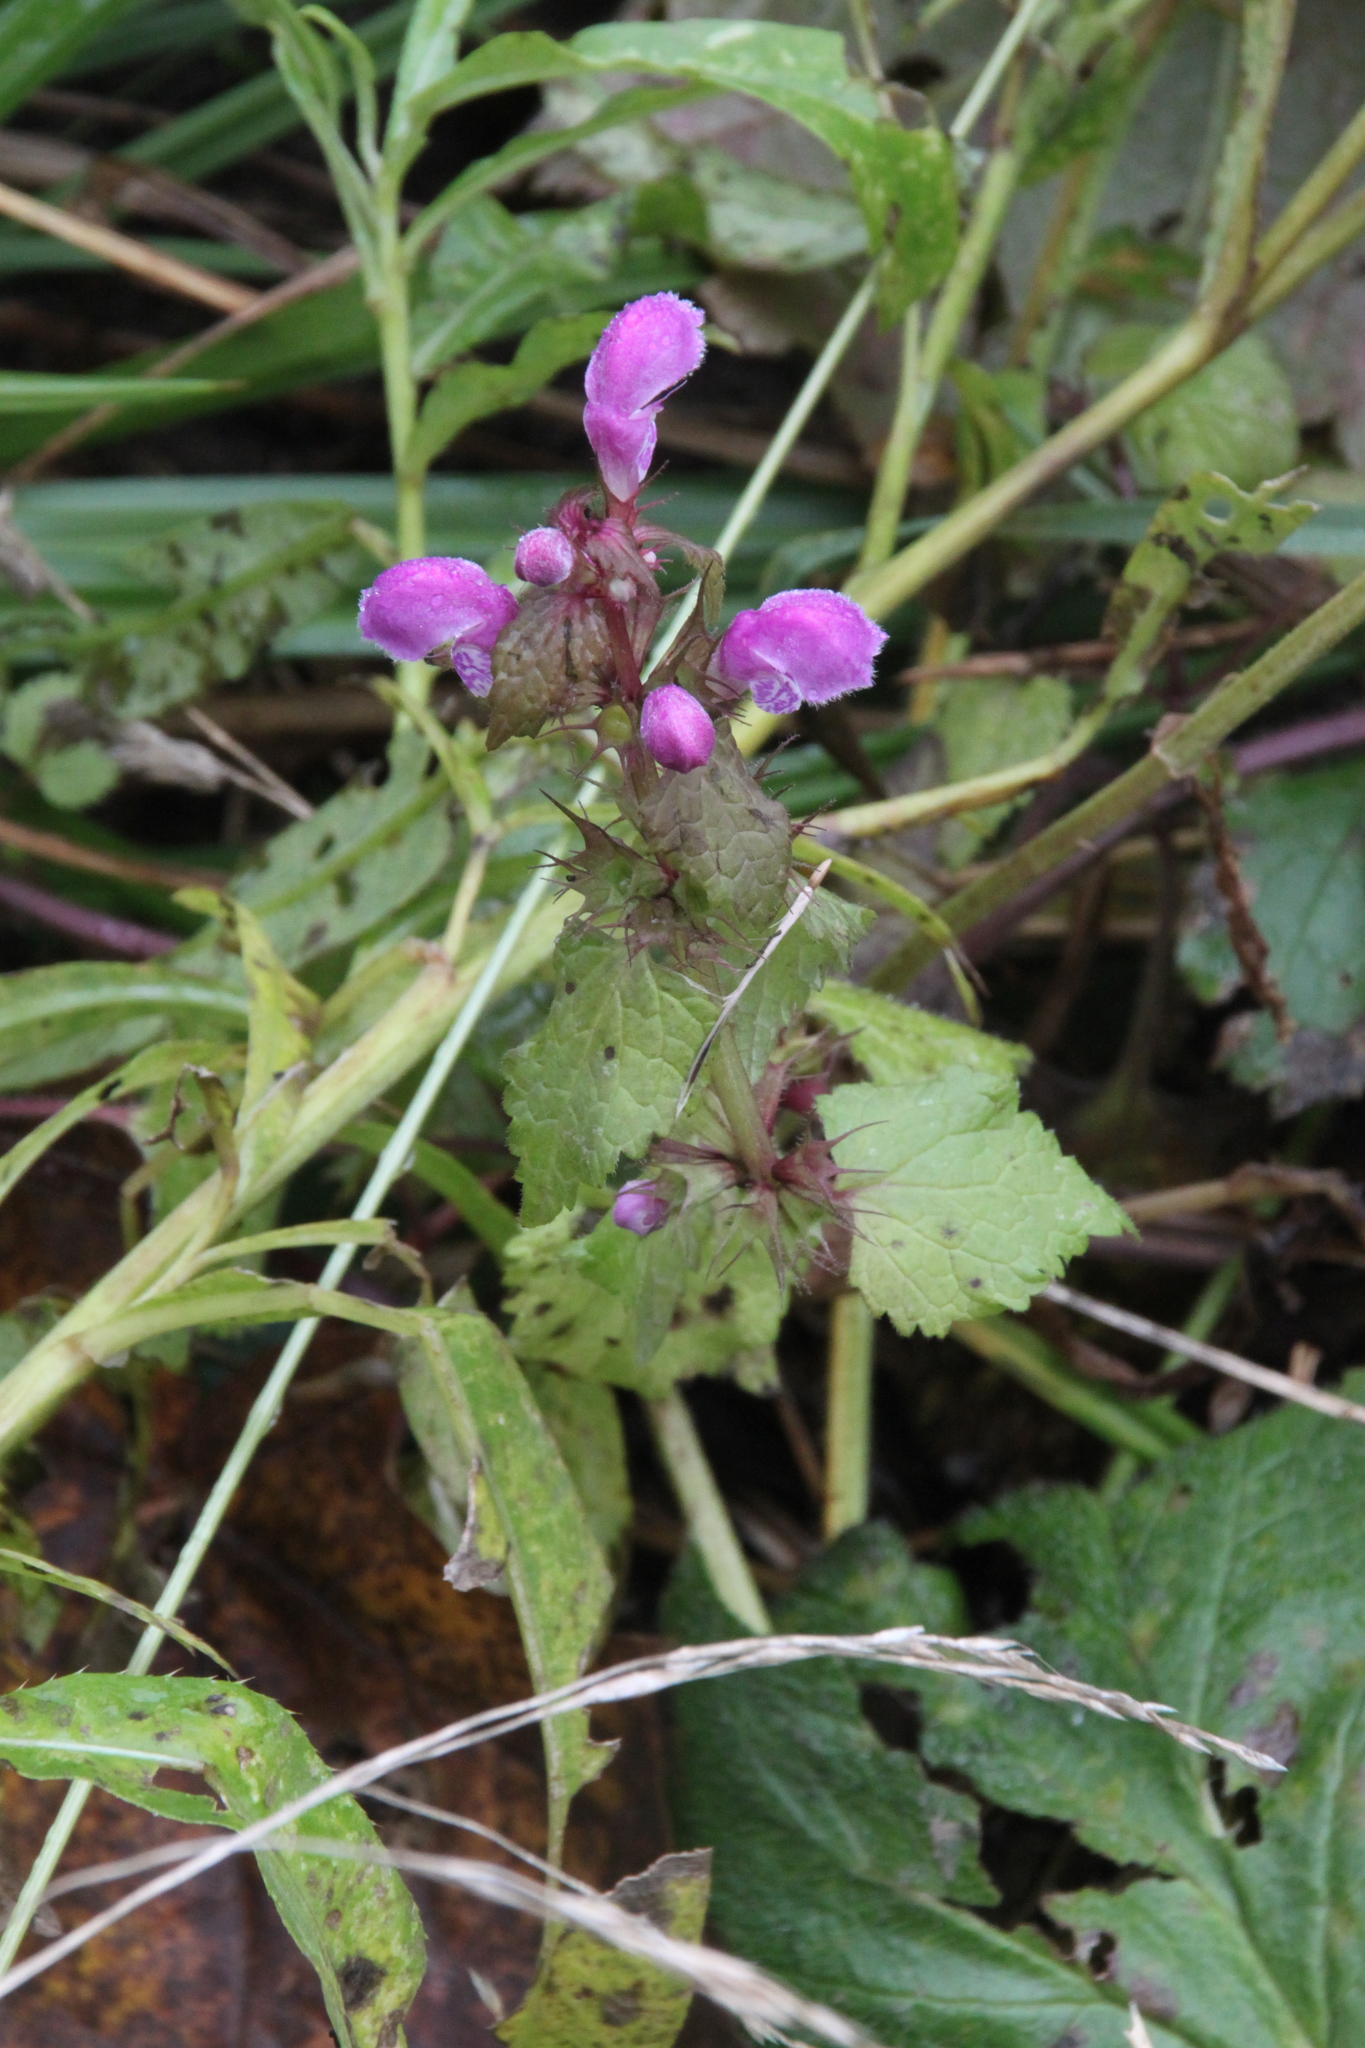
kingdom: Plantae
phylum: Tracheophyta
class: Magnoliopsida
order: Lamiales
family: Lamiaceae
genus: Lamium
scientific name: Lamium maculatum
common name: Spotted dead-nettle
